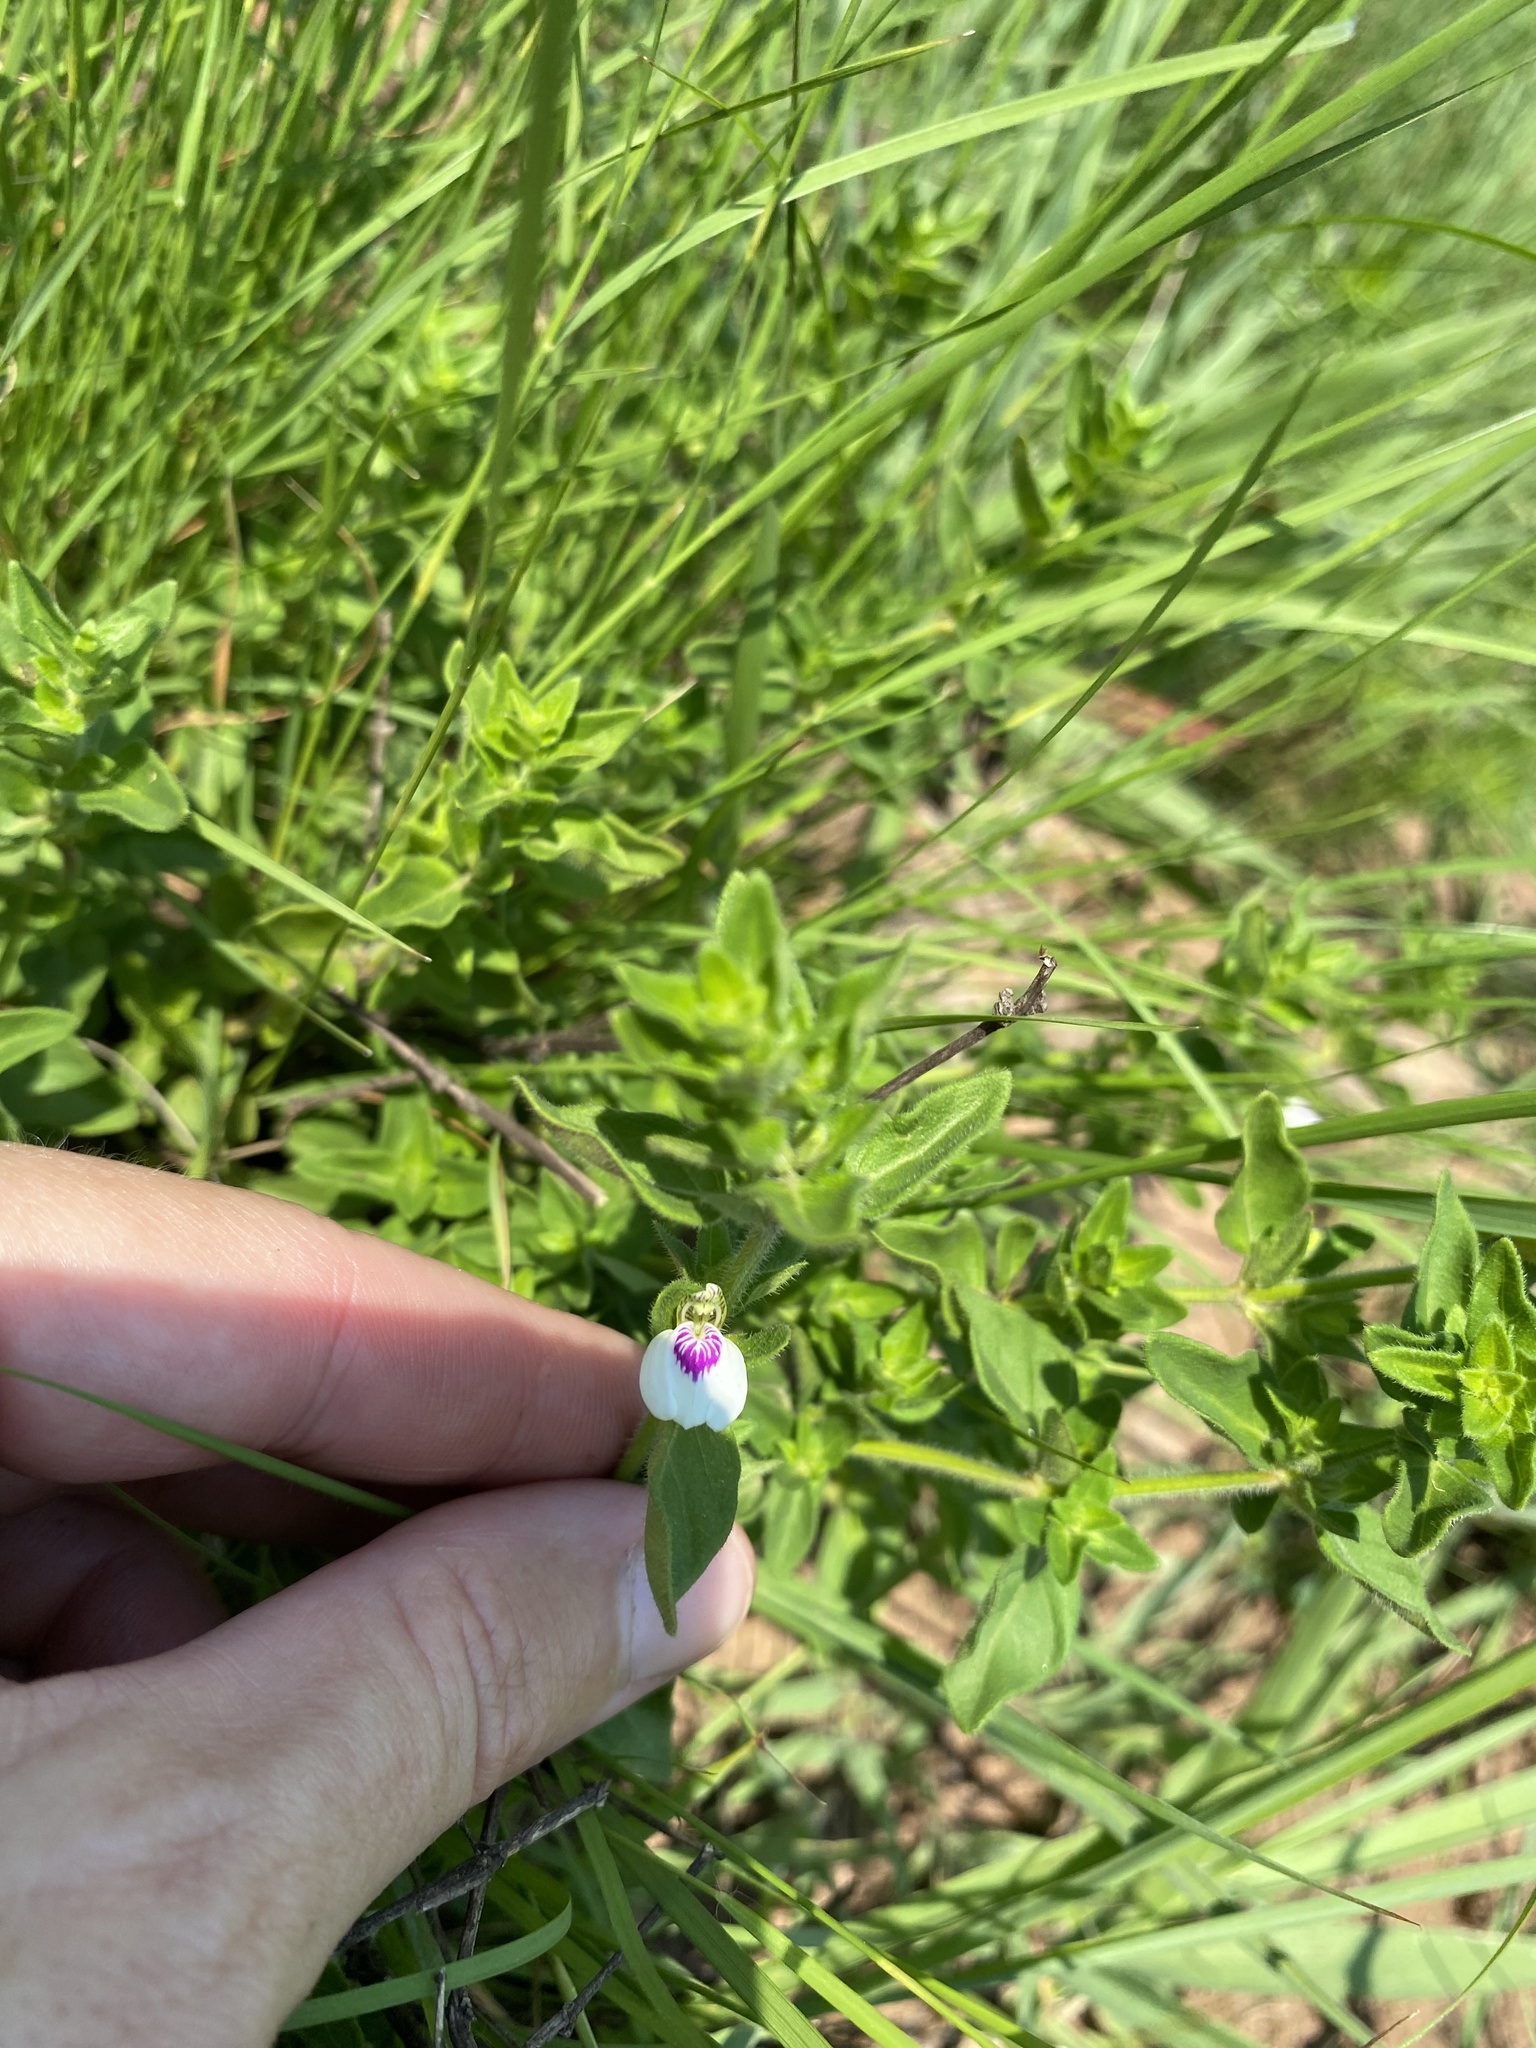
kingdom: Plantae
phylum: Tracheophyta
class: Magnoliopsida
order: Lamiales
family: Acanthaceae
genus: Justicia
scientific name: Justicia protracta
